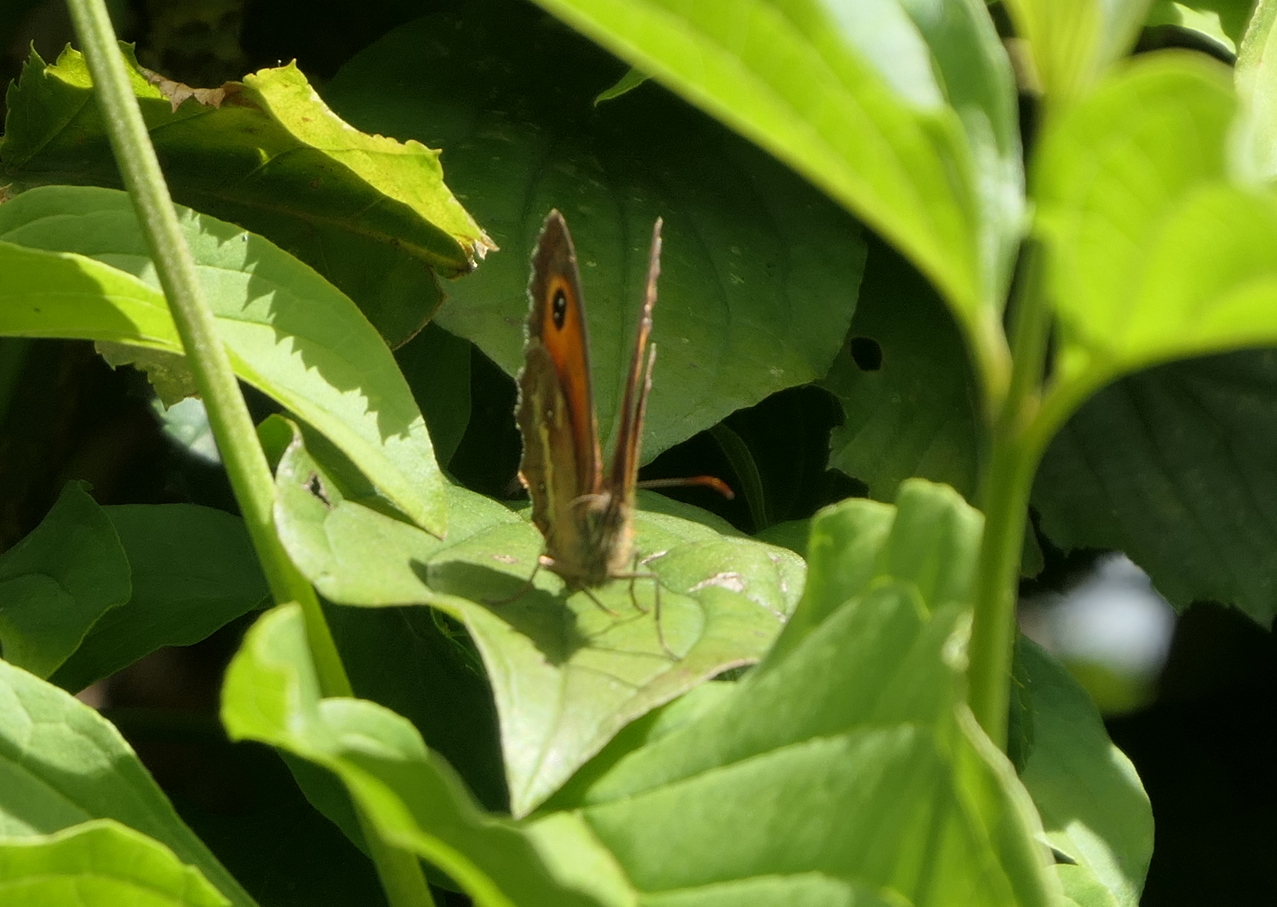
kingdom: Animalia
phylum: Arthropoda
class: Insecta
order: Lepidoptera
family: Nymphalidae
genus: Pyronia
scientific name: Pyronia tithonus
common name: Gatekeeper
